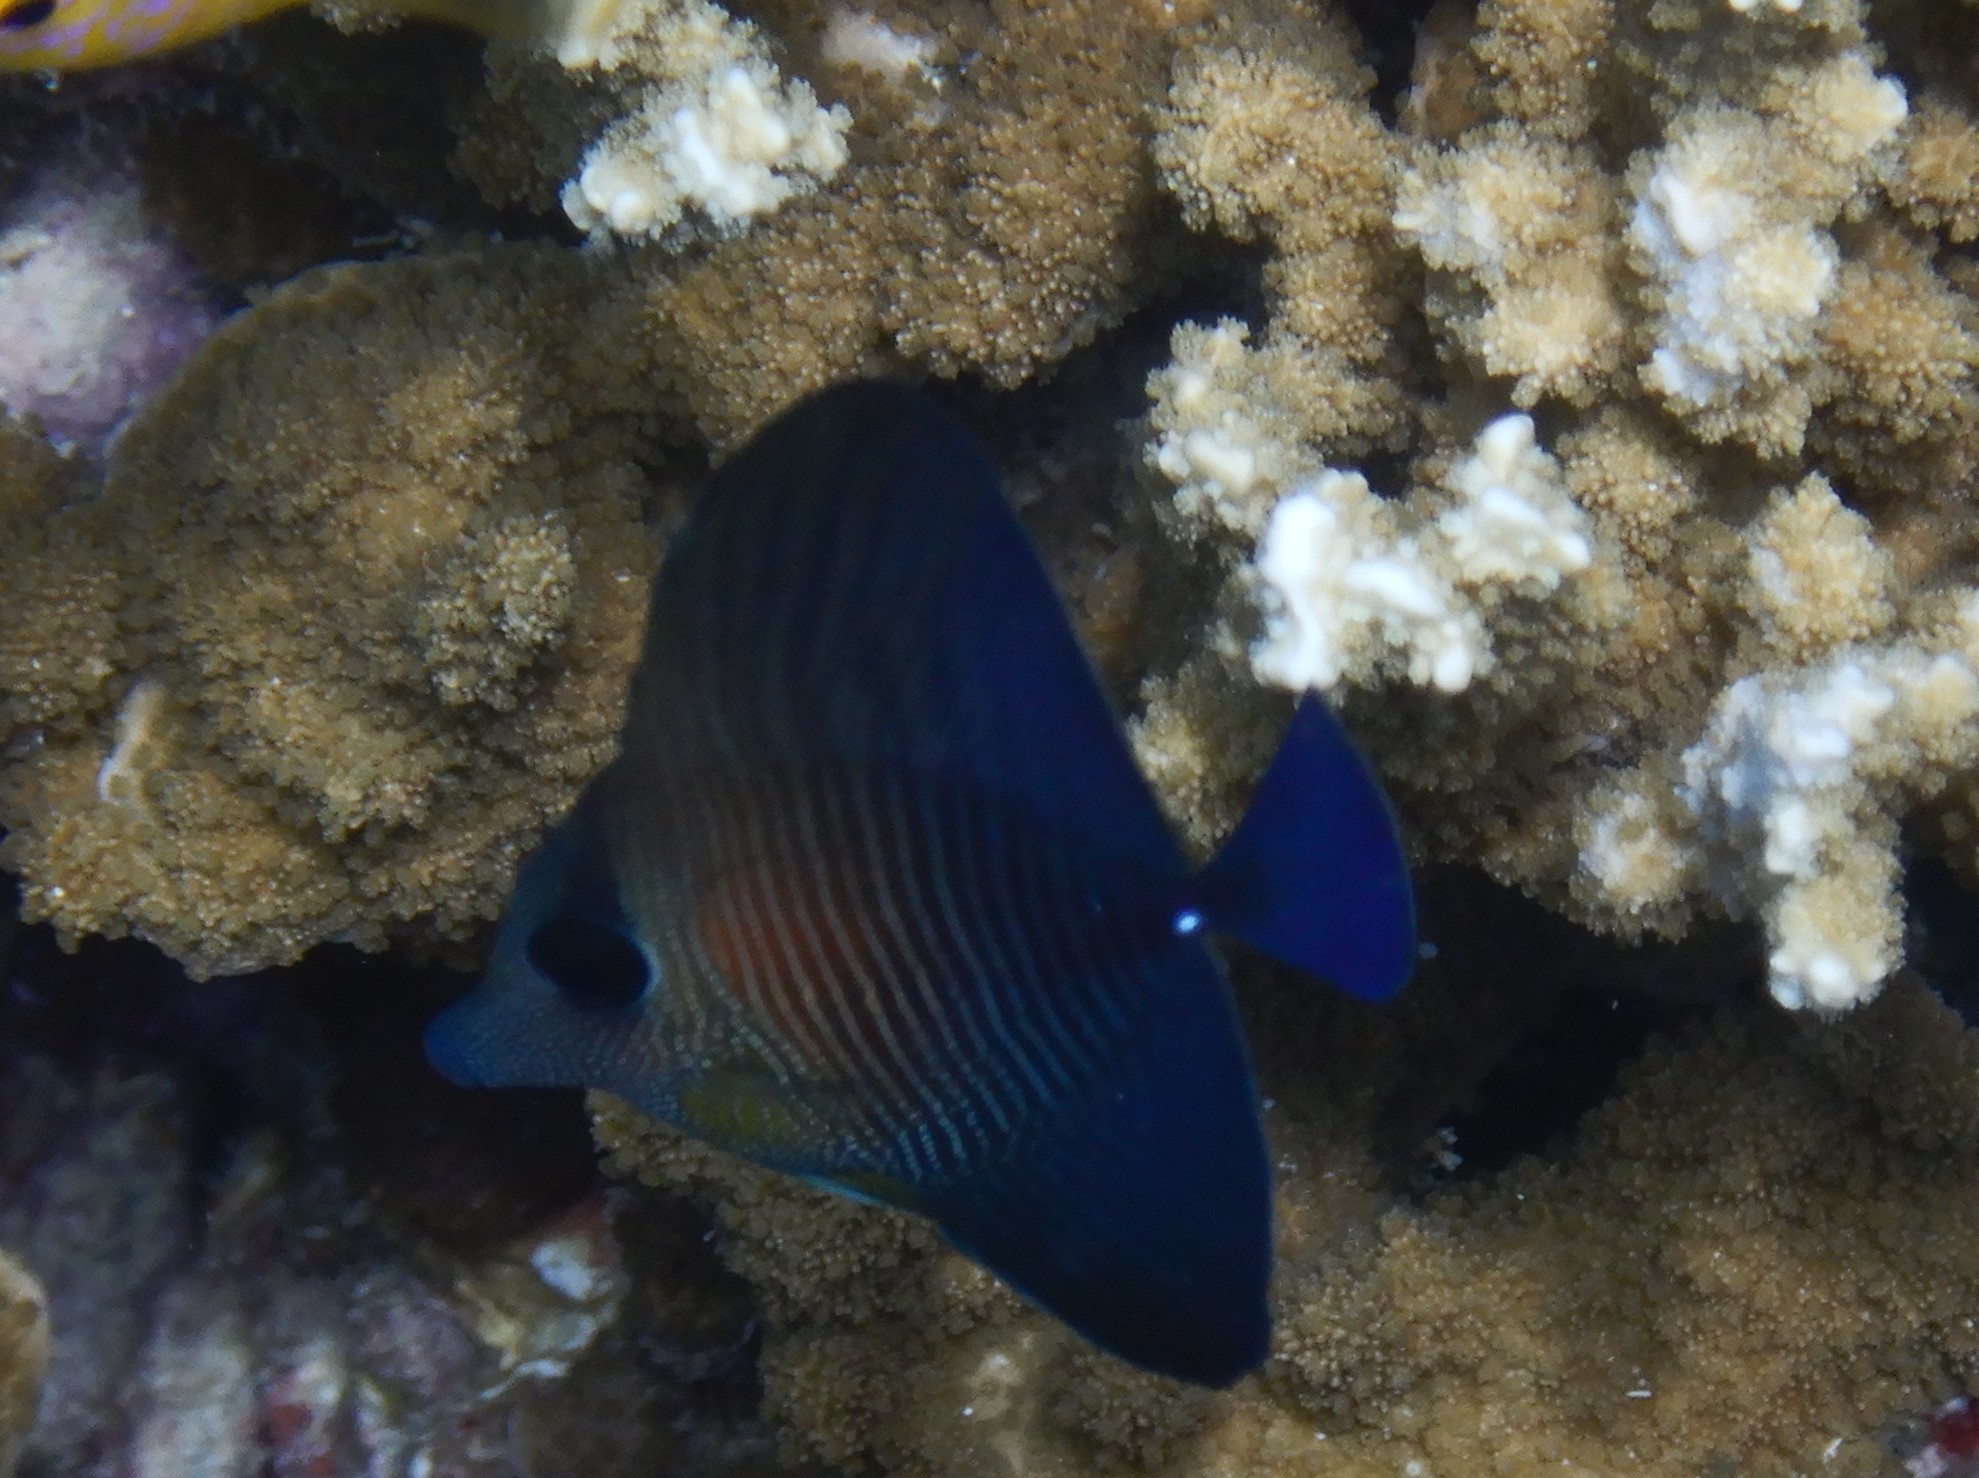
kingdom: Animalia
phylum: Chordata
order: Perciformes
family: Acanthuridae
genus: Zebrasoma
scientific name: Zebrasoma scopas
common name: Twotone tang
